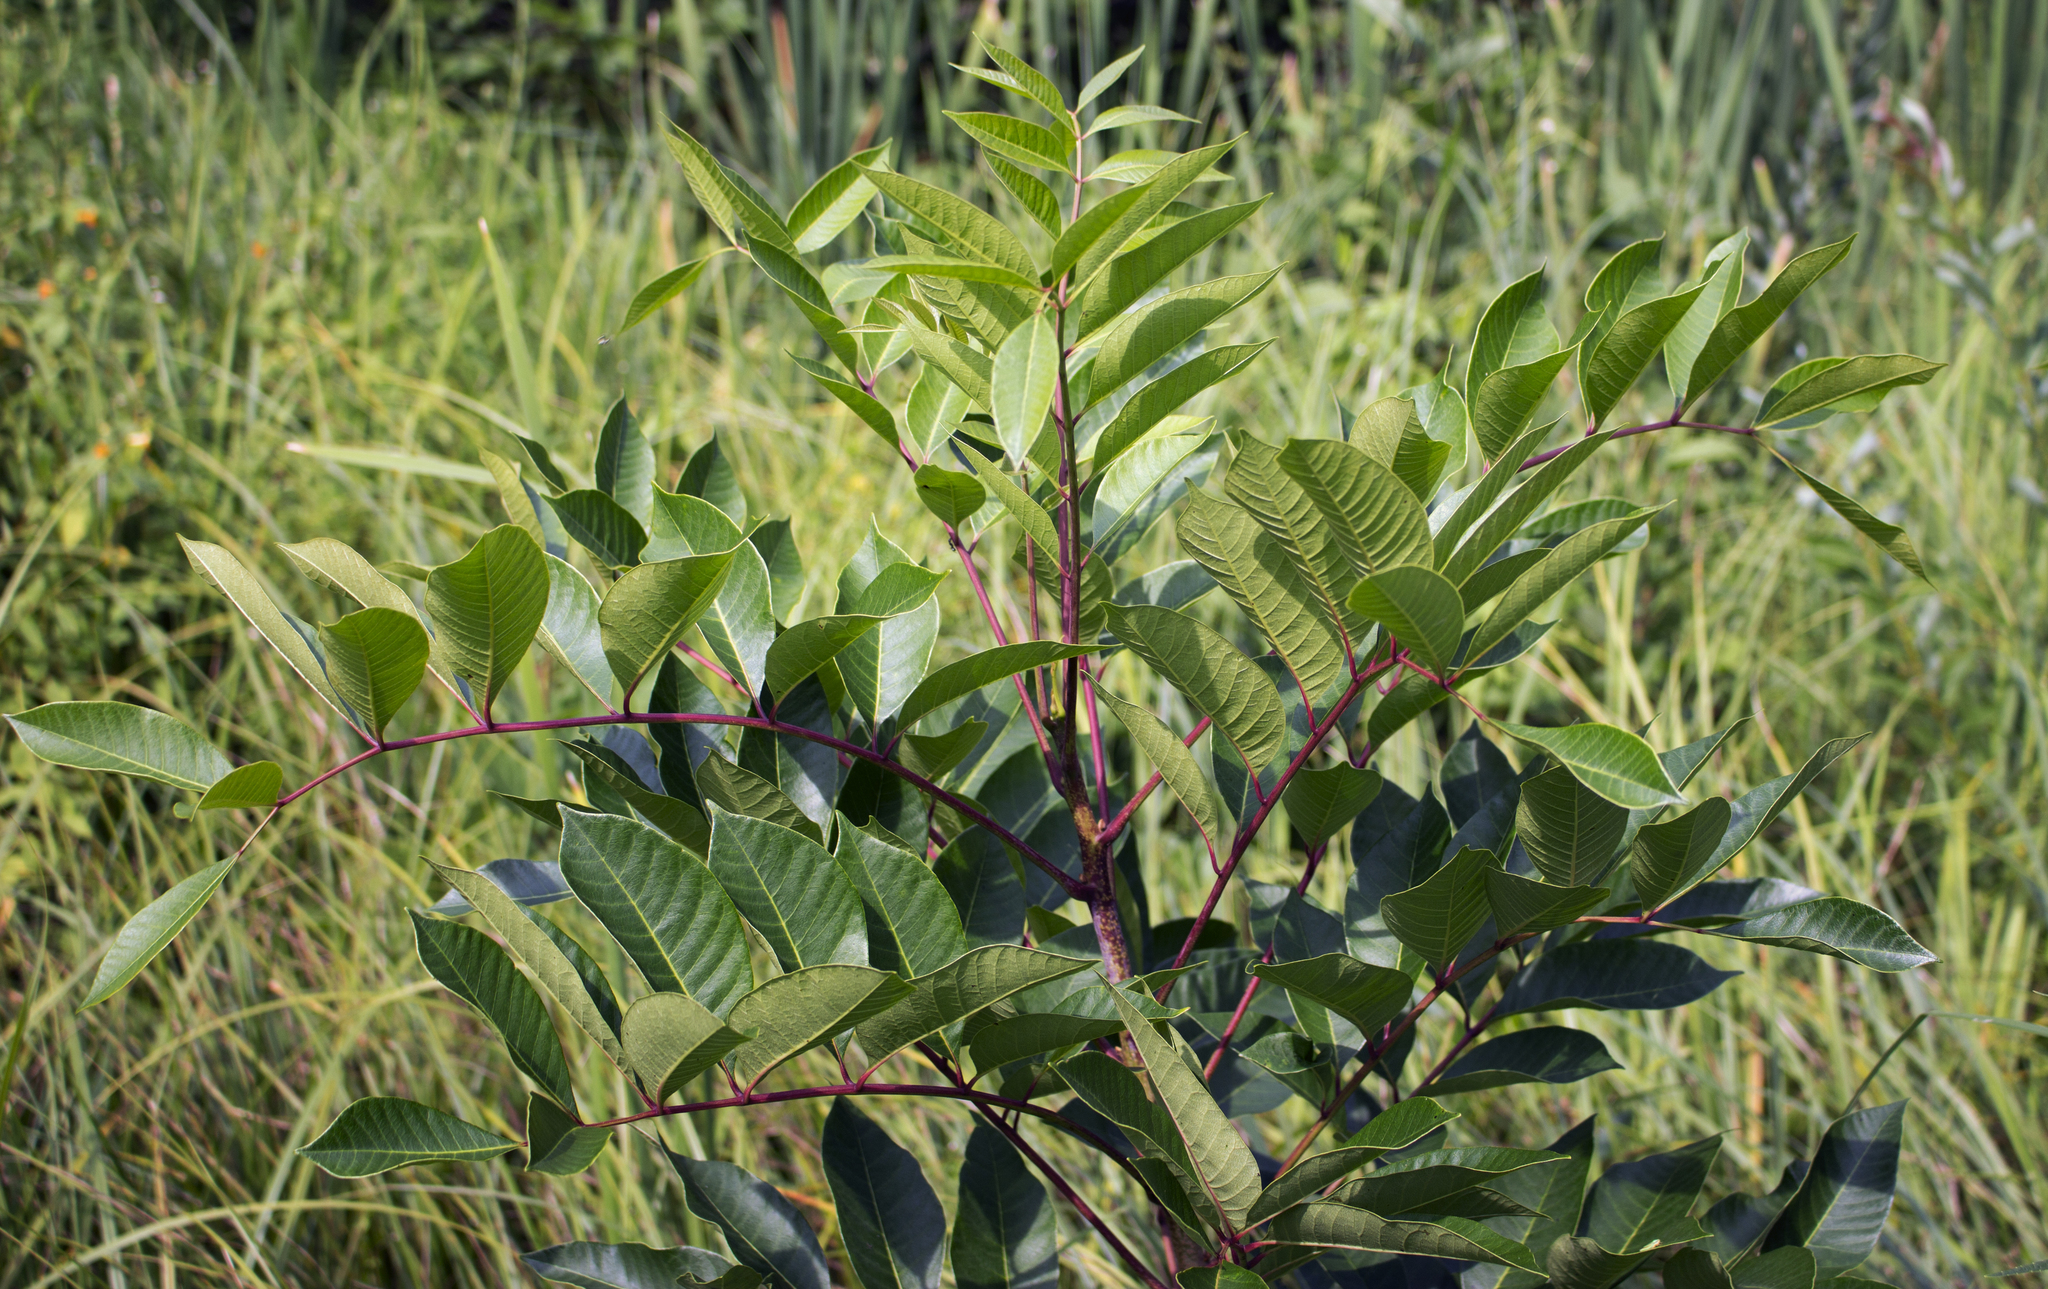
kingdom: Plantae
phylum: Tracheophyta
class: Magnoliopsida
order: Sapindales
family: Anacardiaceae
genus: Toxicodendron
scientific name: Toxicodendron vernix
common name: Poison sumac
